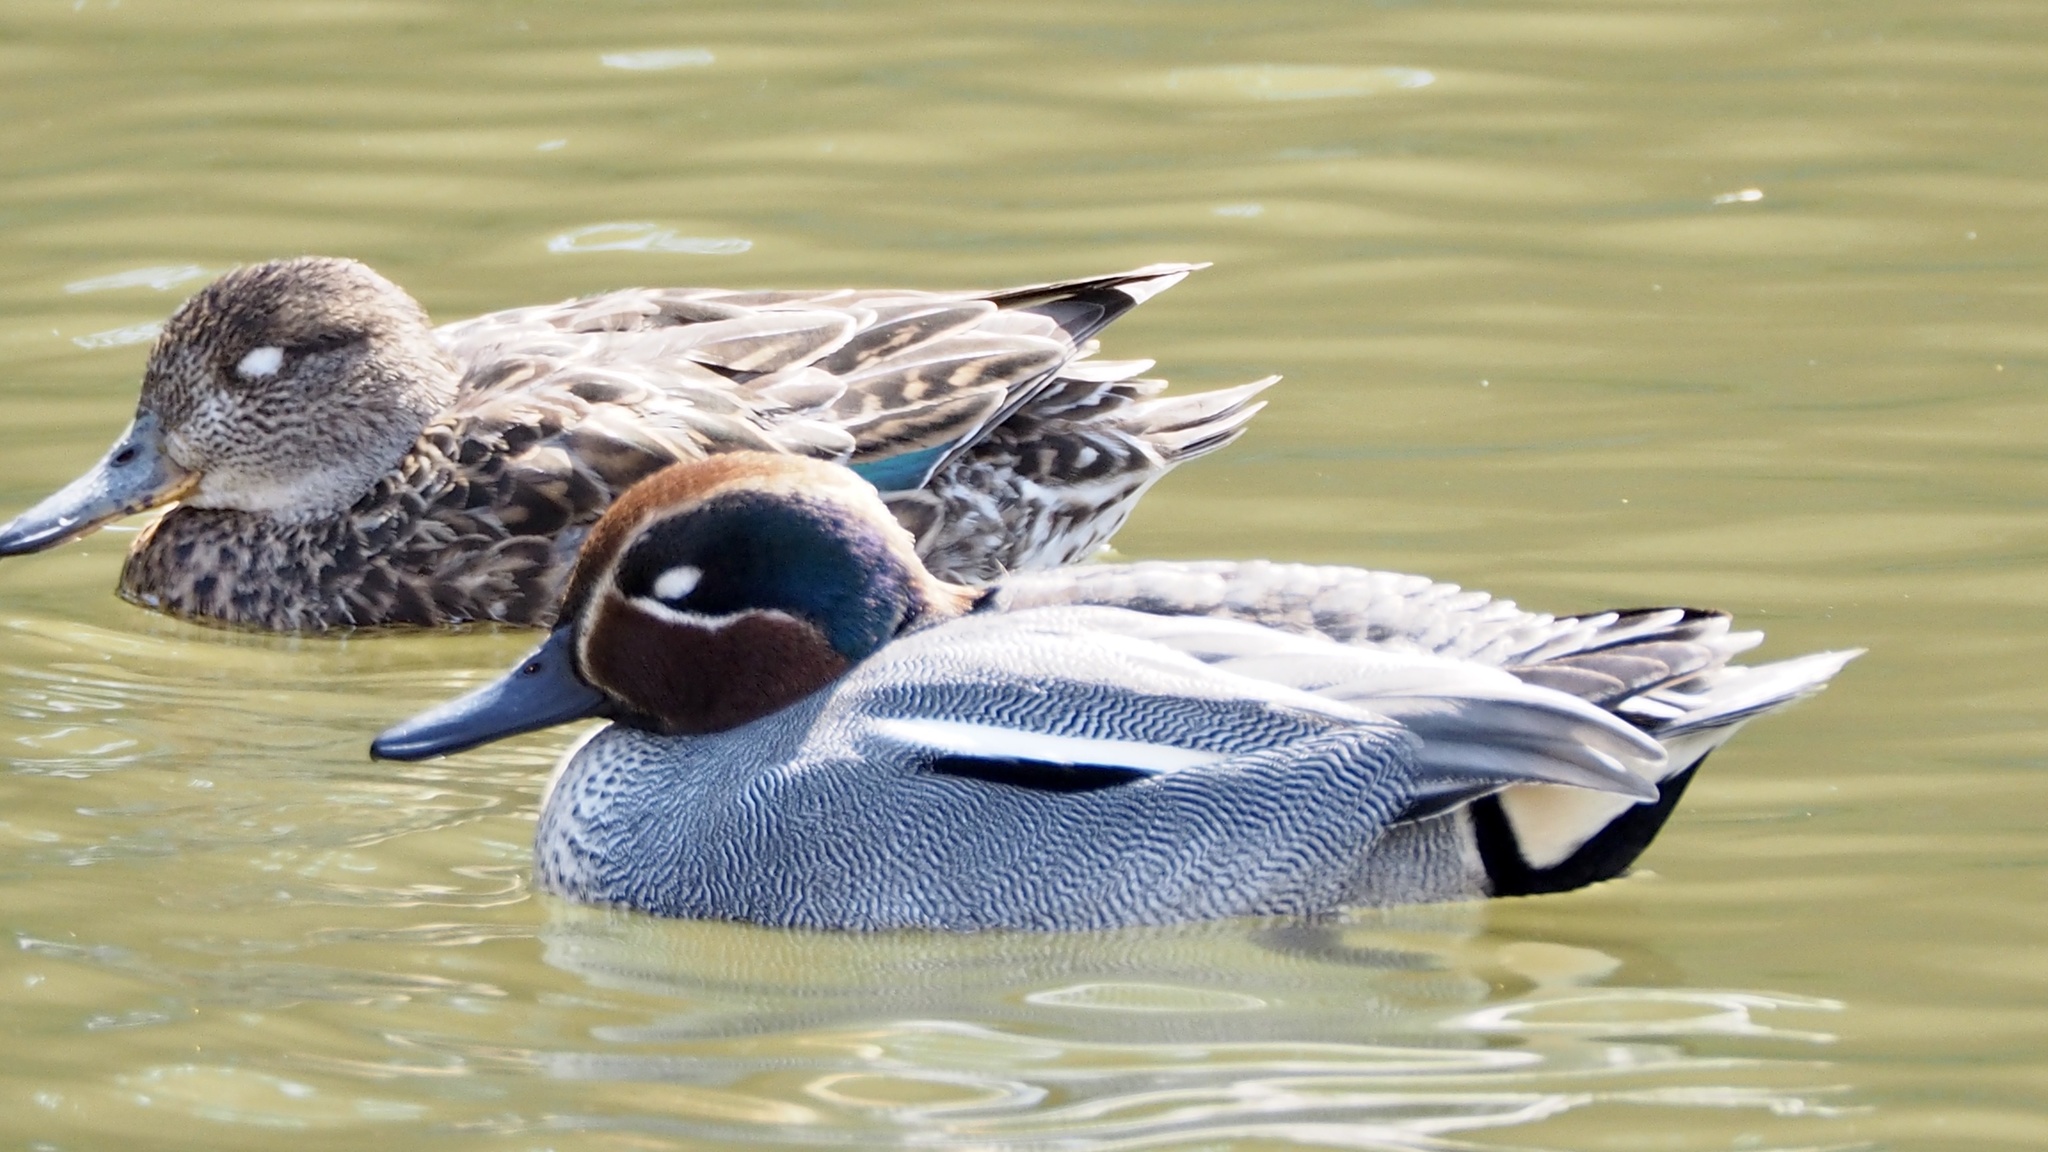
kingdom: Animalia
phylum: Chordata
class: Aves
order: Anseriformes
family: Anatidae
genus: Anas
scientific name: Anas crecca
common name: Eurasian teal
